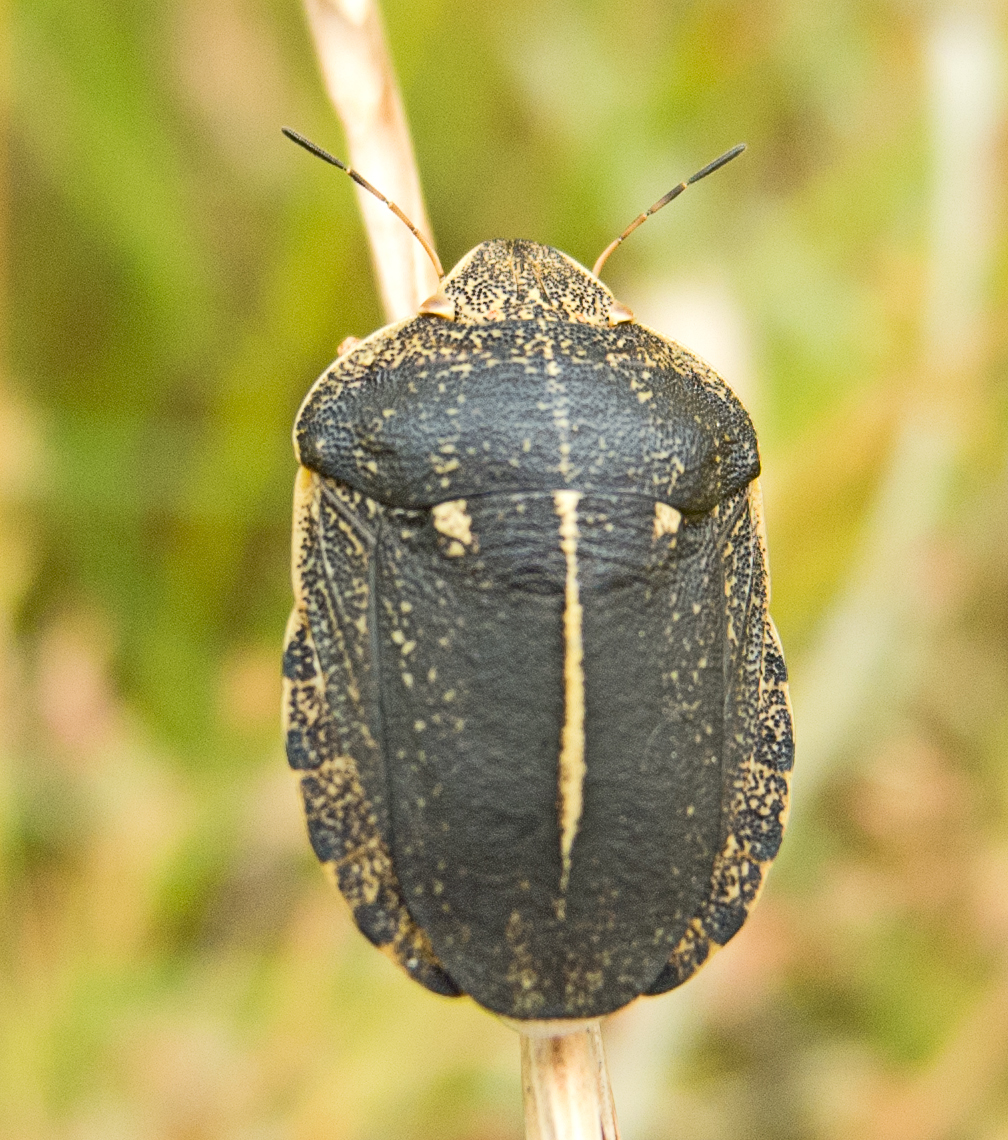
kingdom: Animalia
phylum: Arthropoda
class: Insecta
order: Hemiptera
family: Scutelleridae
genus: Eurygaster
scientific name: Eurygaster austriaca
